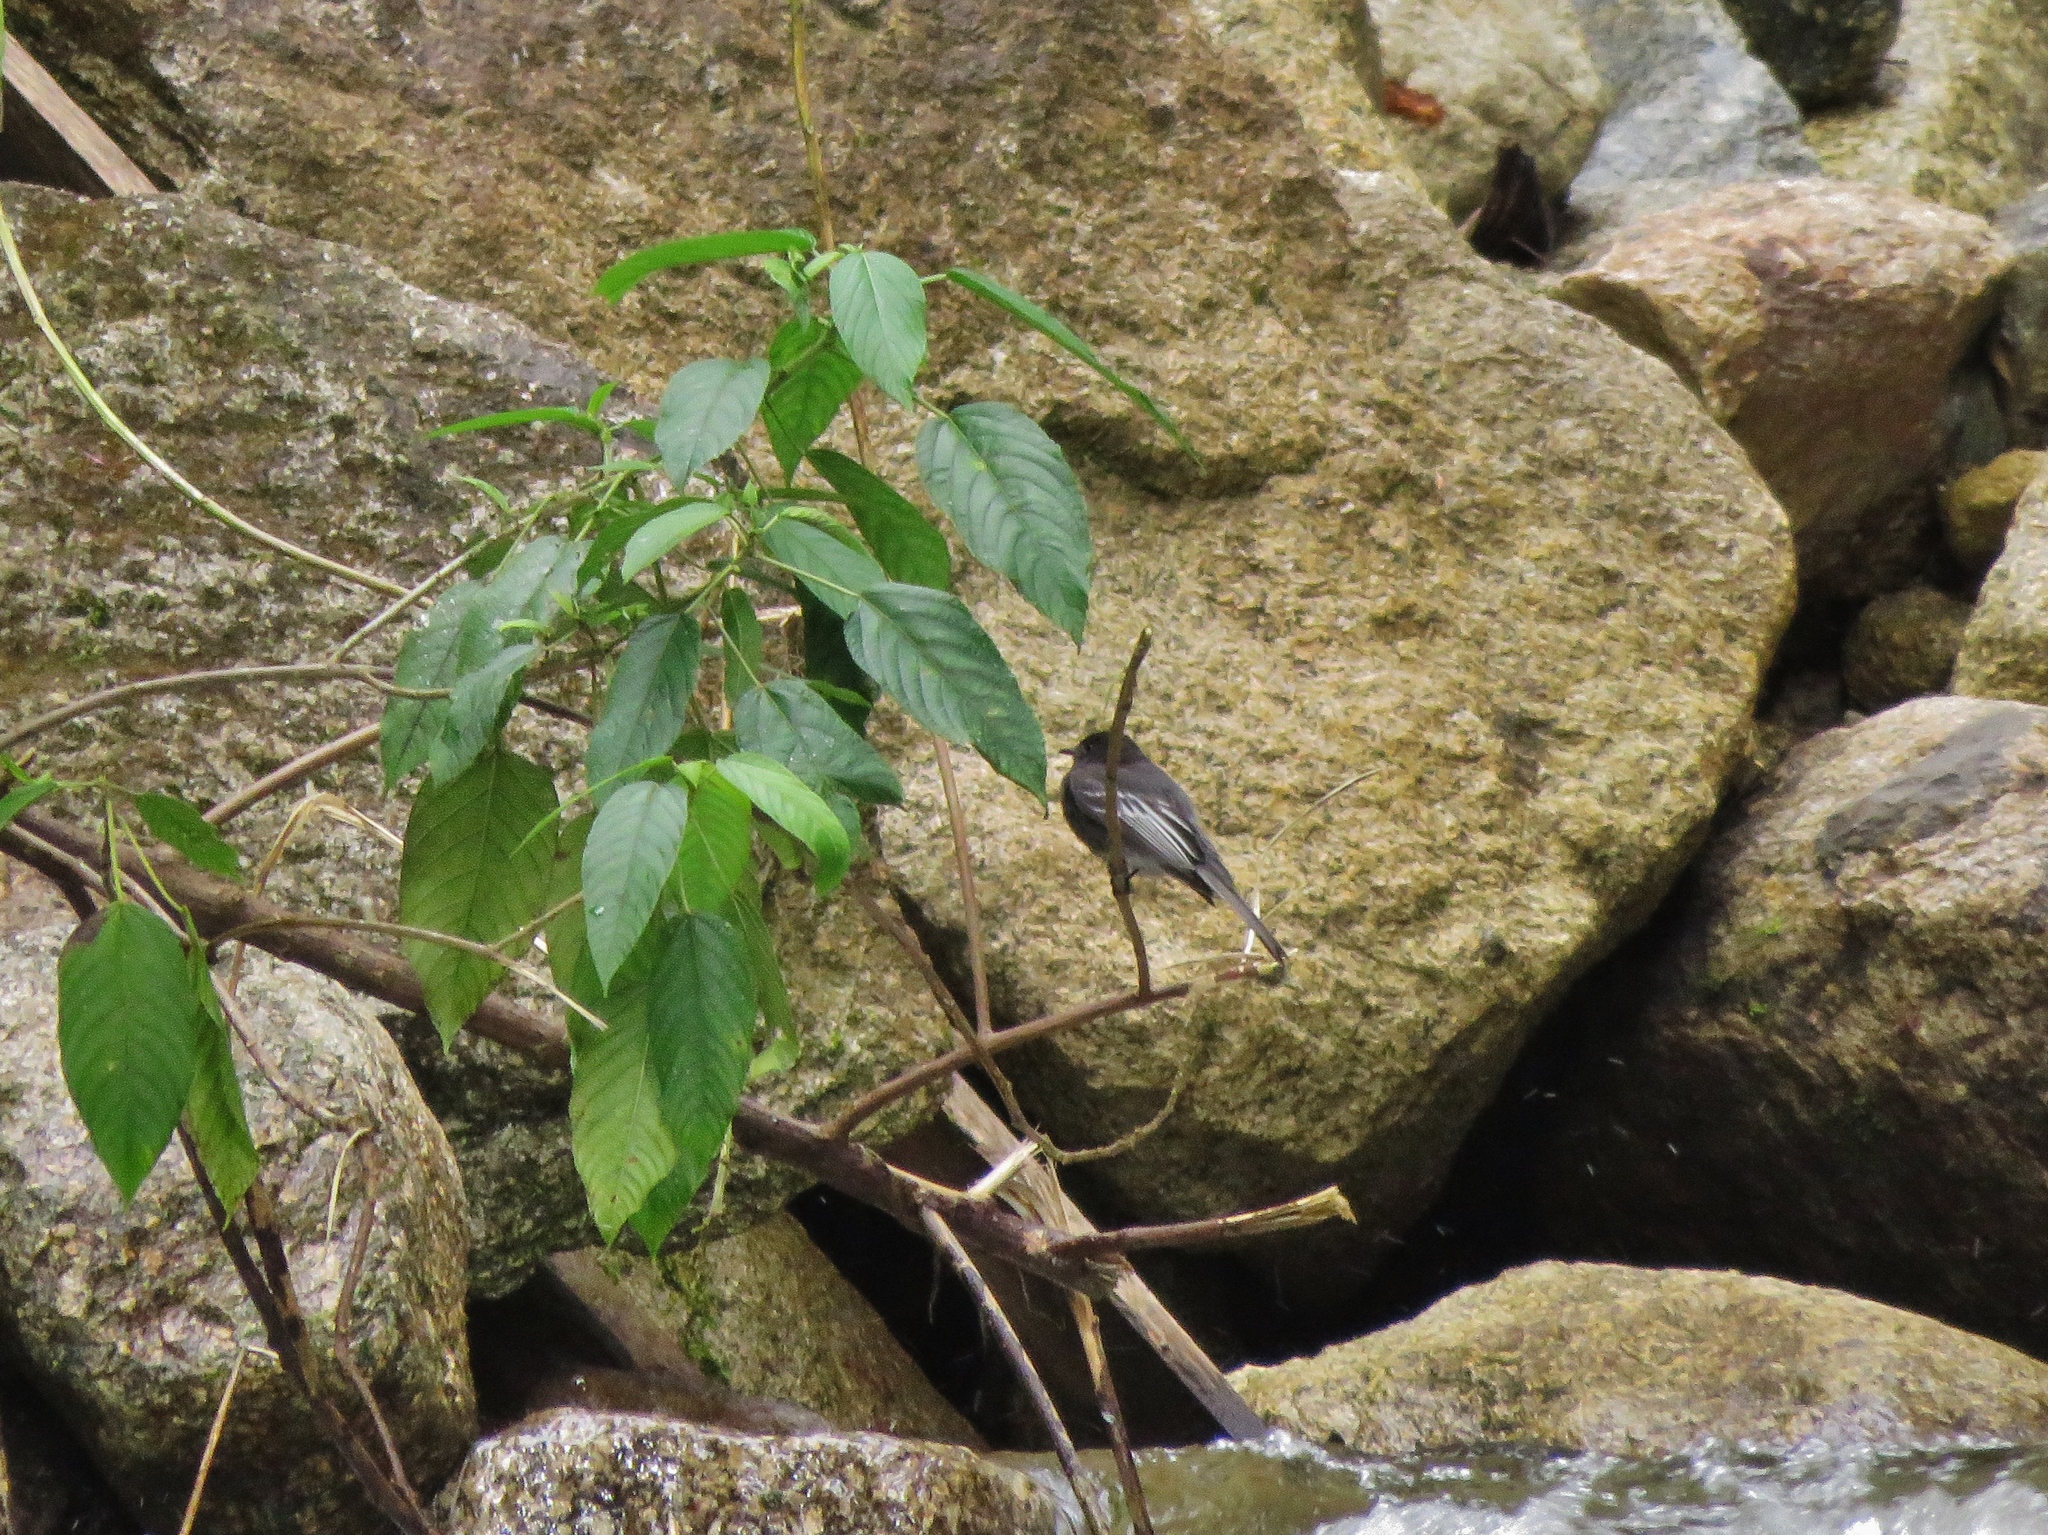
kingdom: Animalia
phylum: Chordata
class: Aves
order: Passeriformes
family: Tyrannidae
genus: Sayornis
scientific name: Sayornis nigricans
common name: Black phoebe
